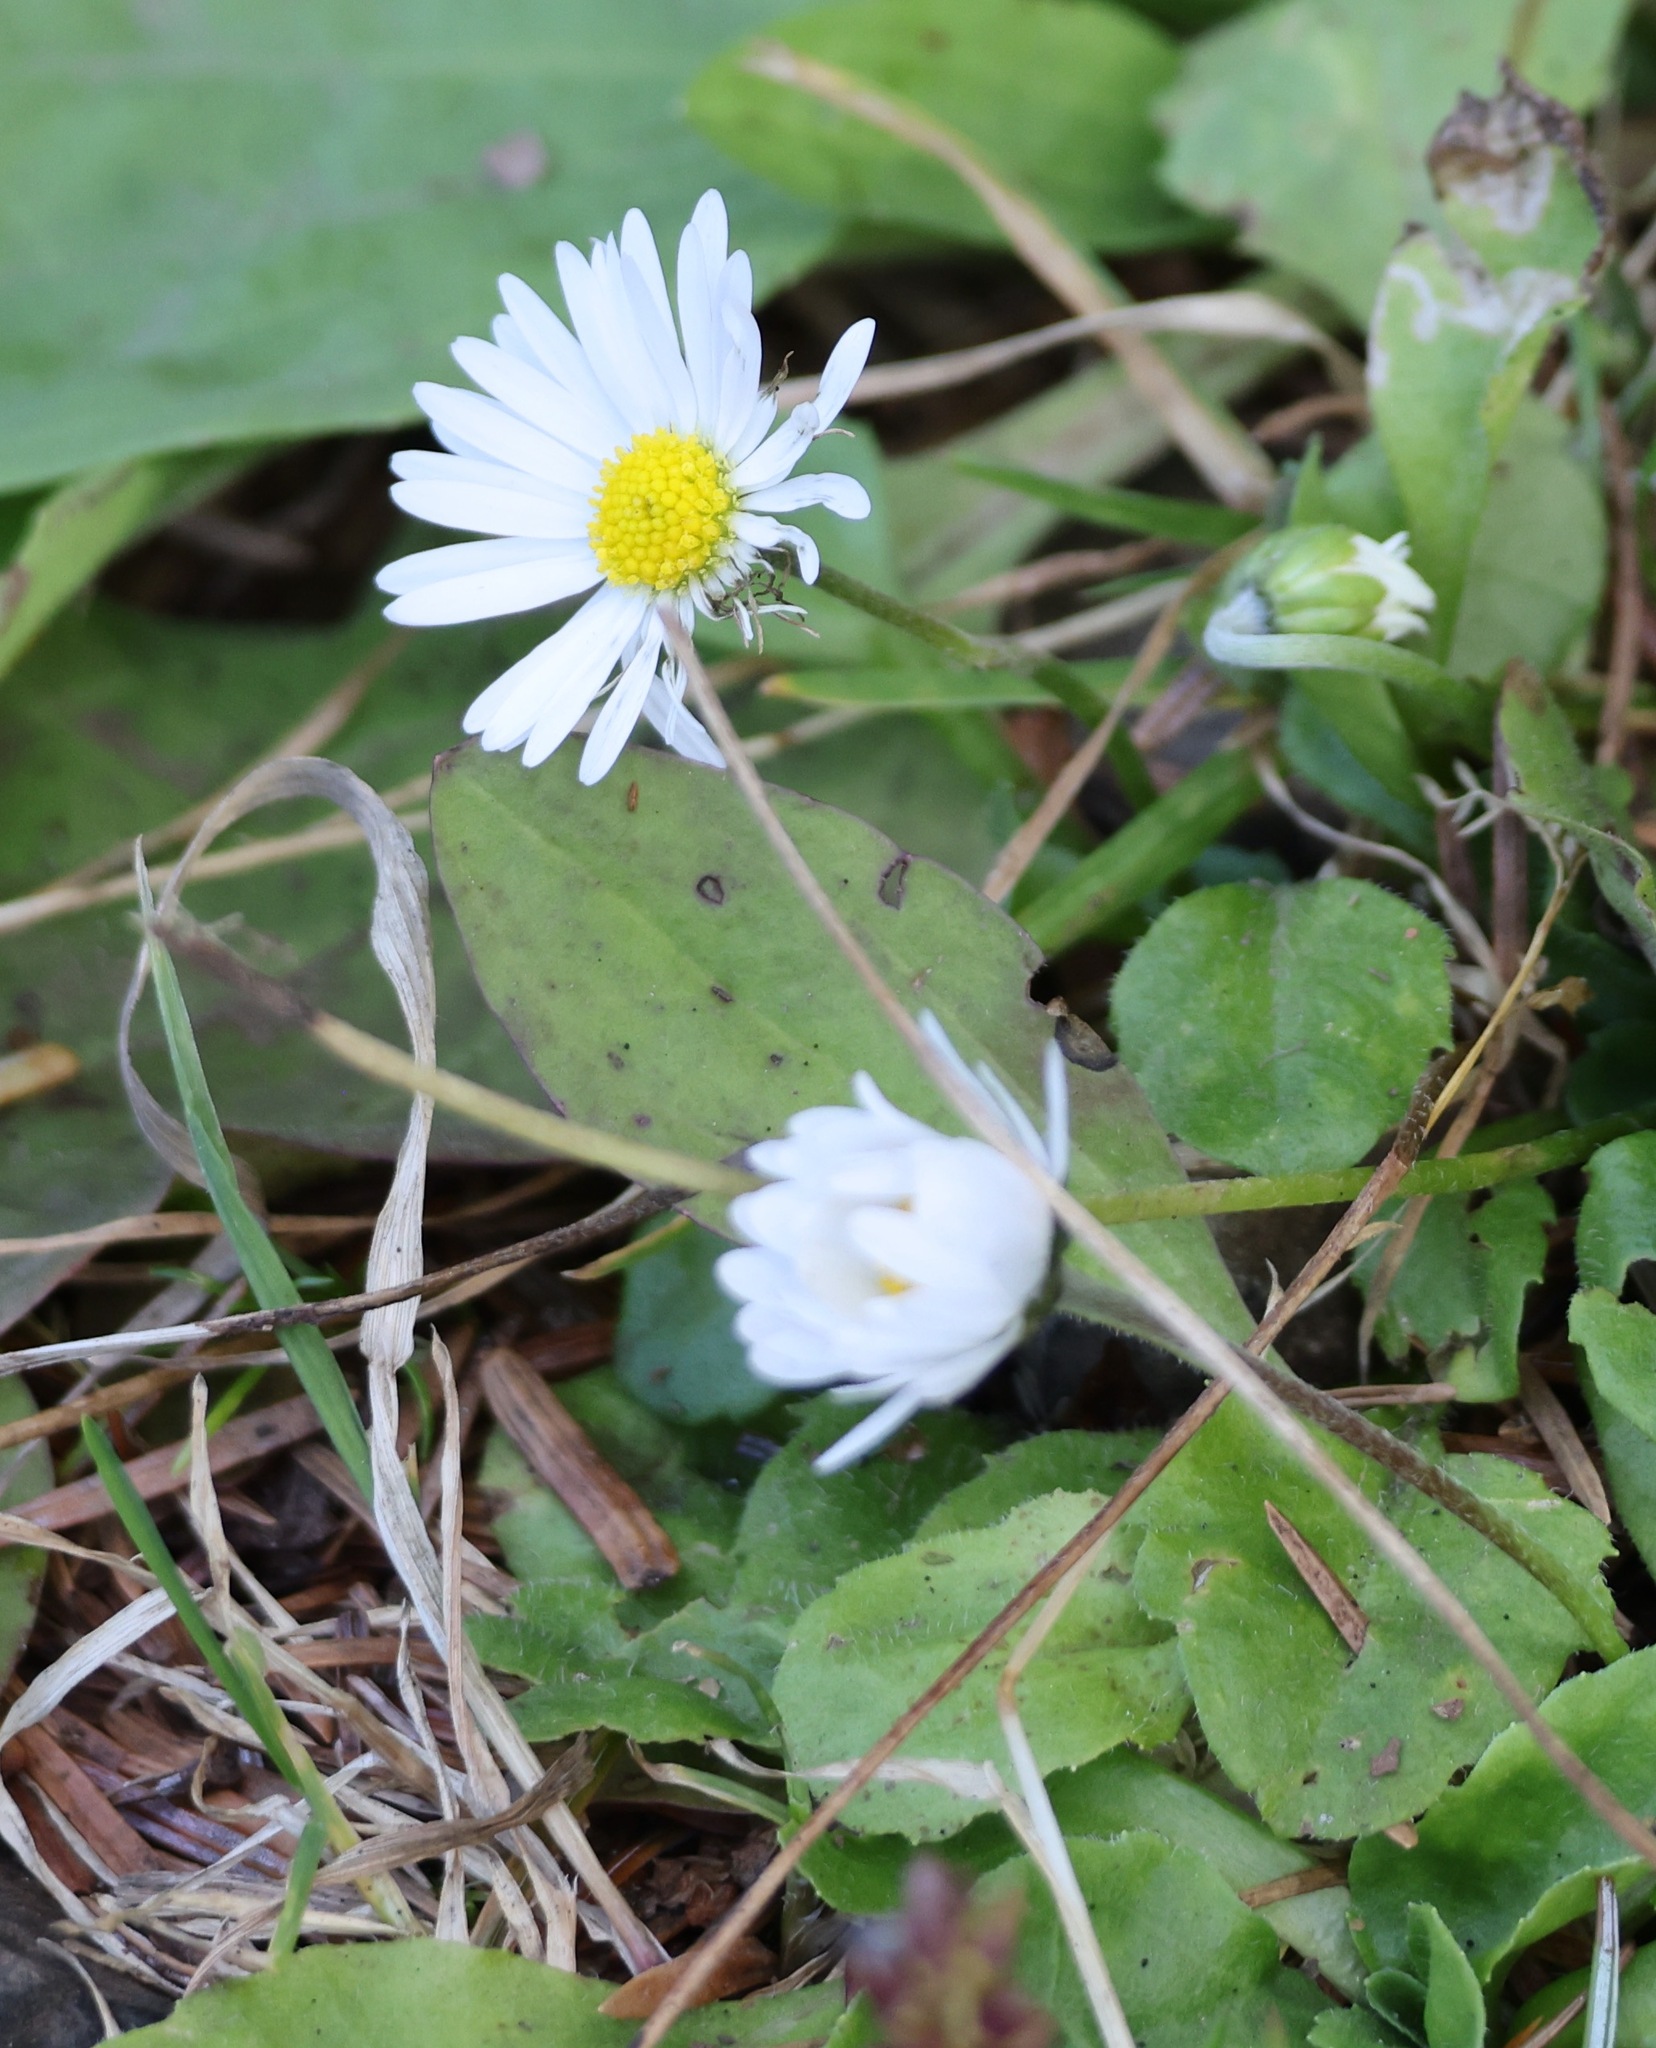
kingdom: Plantae
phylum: Tracheophyta
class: Magnoliopsida
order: Asterales
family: Asteraceae
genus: Bellis
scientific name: Bellis perennis
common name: Lawndaisy
